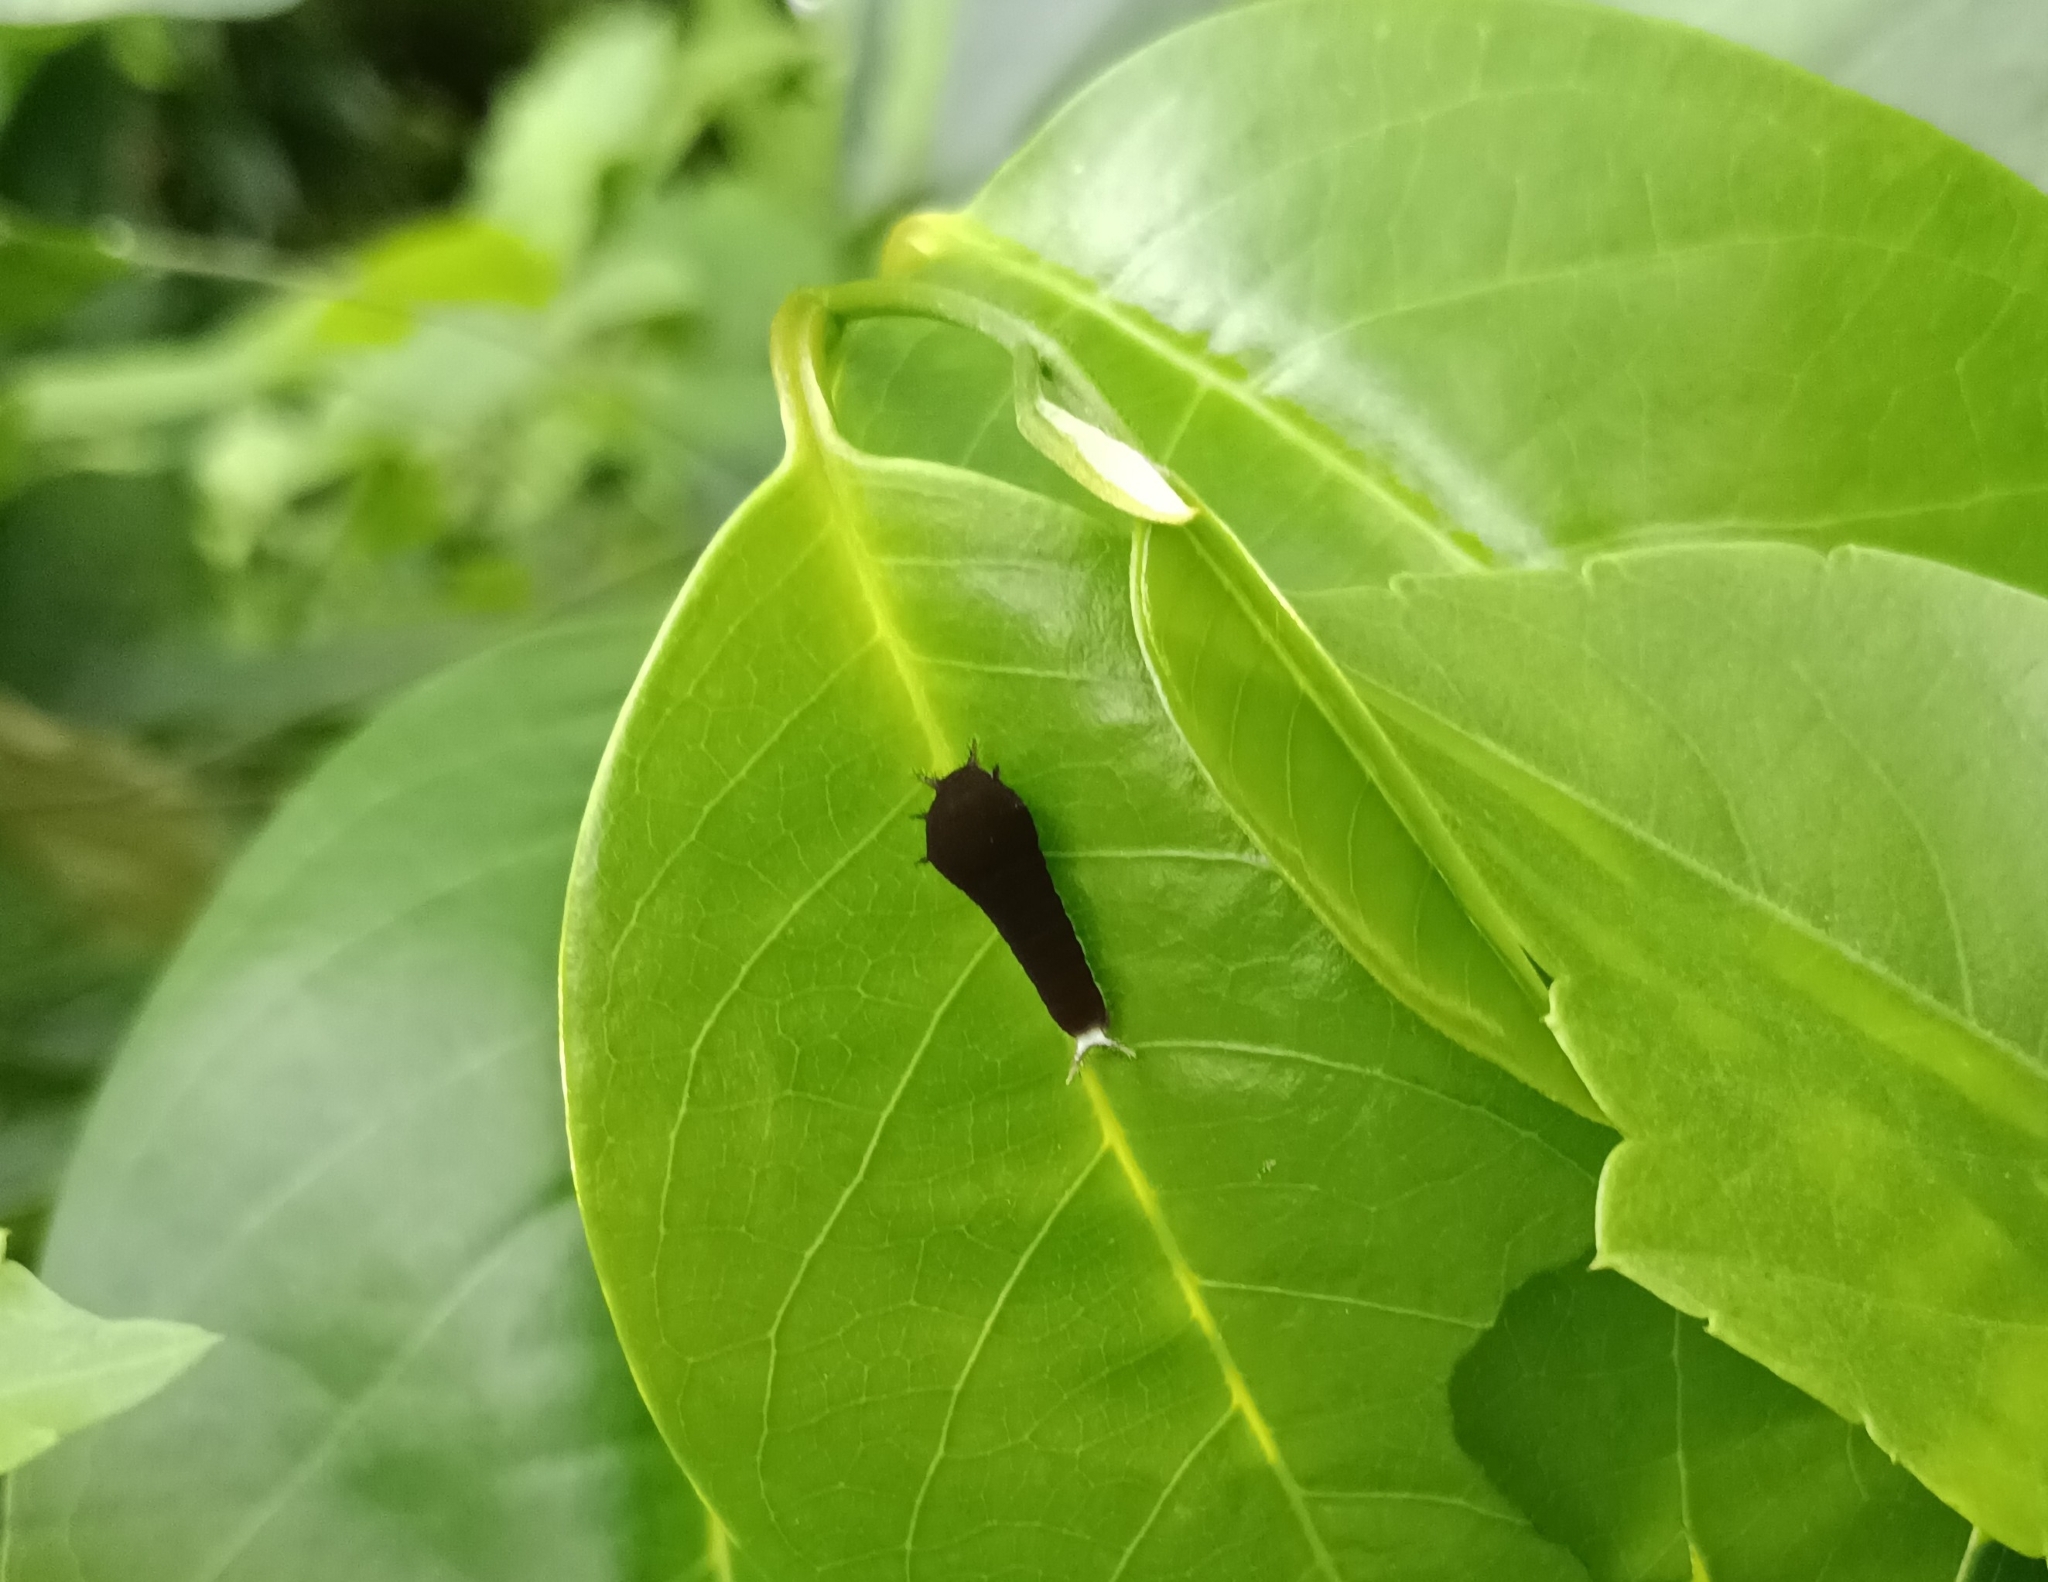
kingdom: Animalia
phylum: Arthropoda
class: Insecta
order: Lepidoptera
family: Papilionidae
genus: Graphium
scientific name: Graphium doson
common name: Common jay
